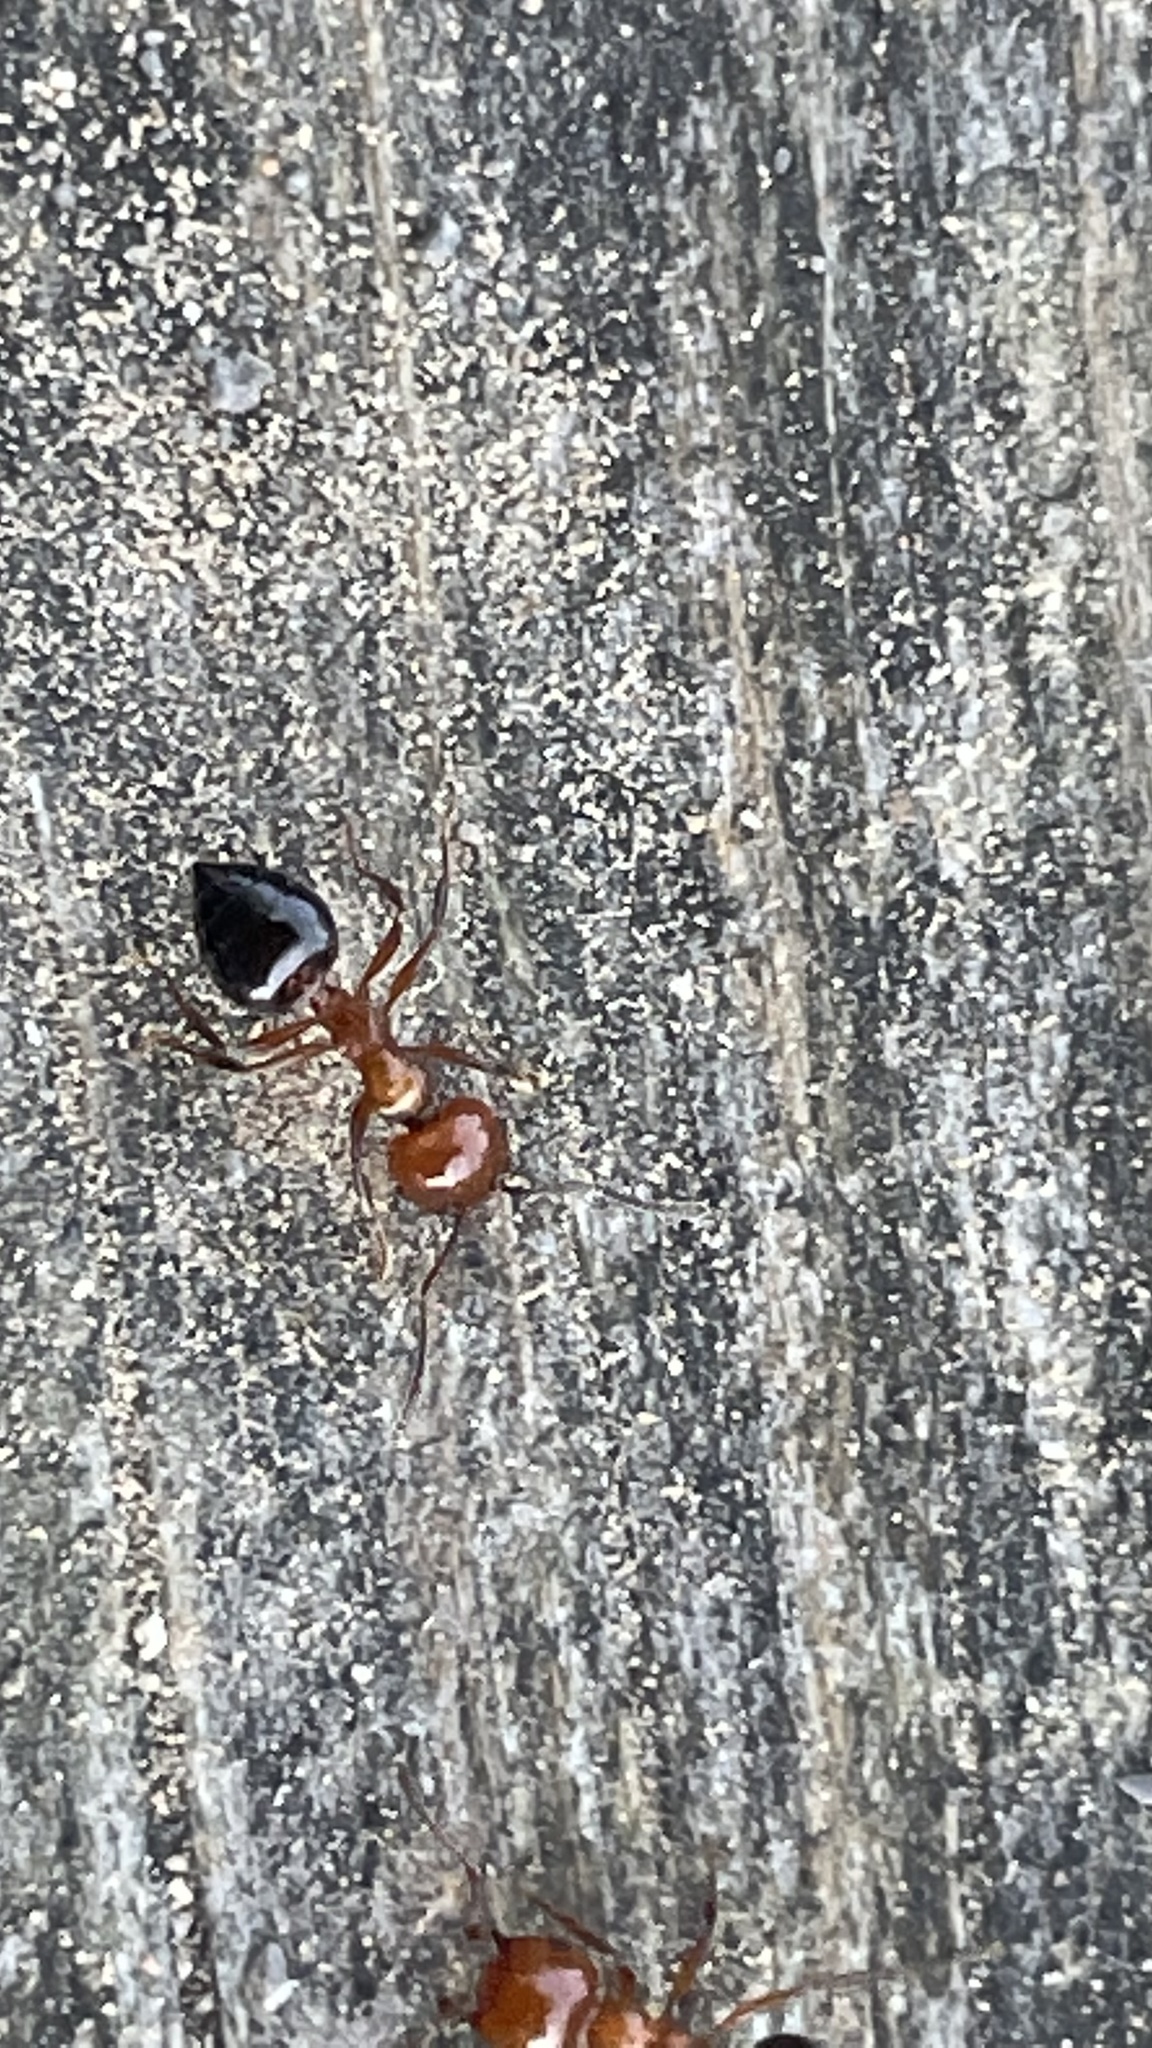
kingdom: Animalia
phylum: Arthropoda
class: Insecta
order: Hymenoptera
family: Formicidae
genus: Crematogaster
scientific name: Crematogaster laeviuscula
